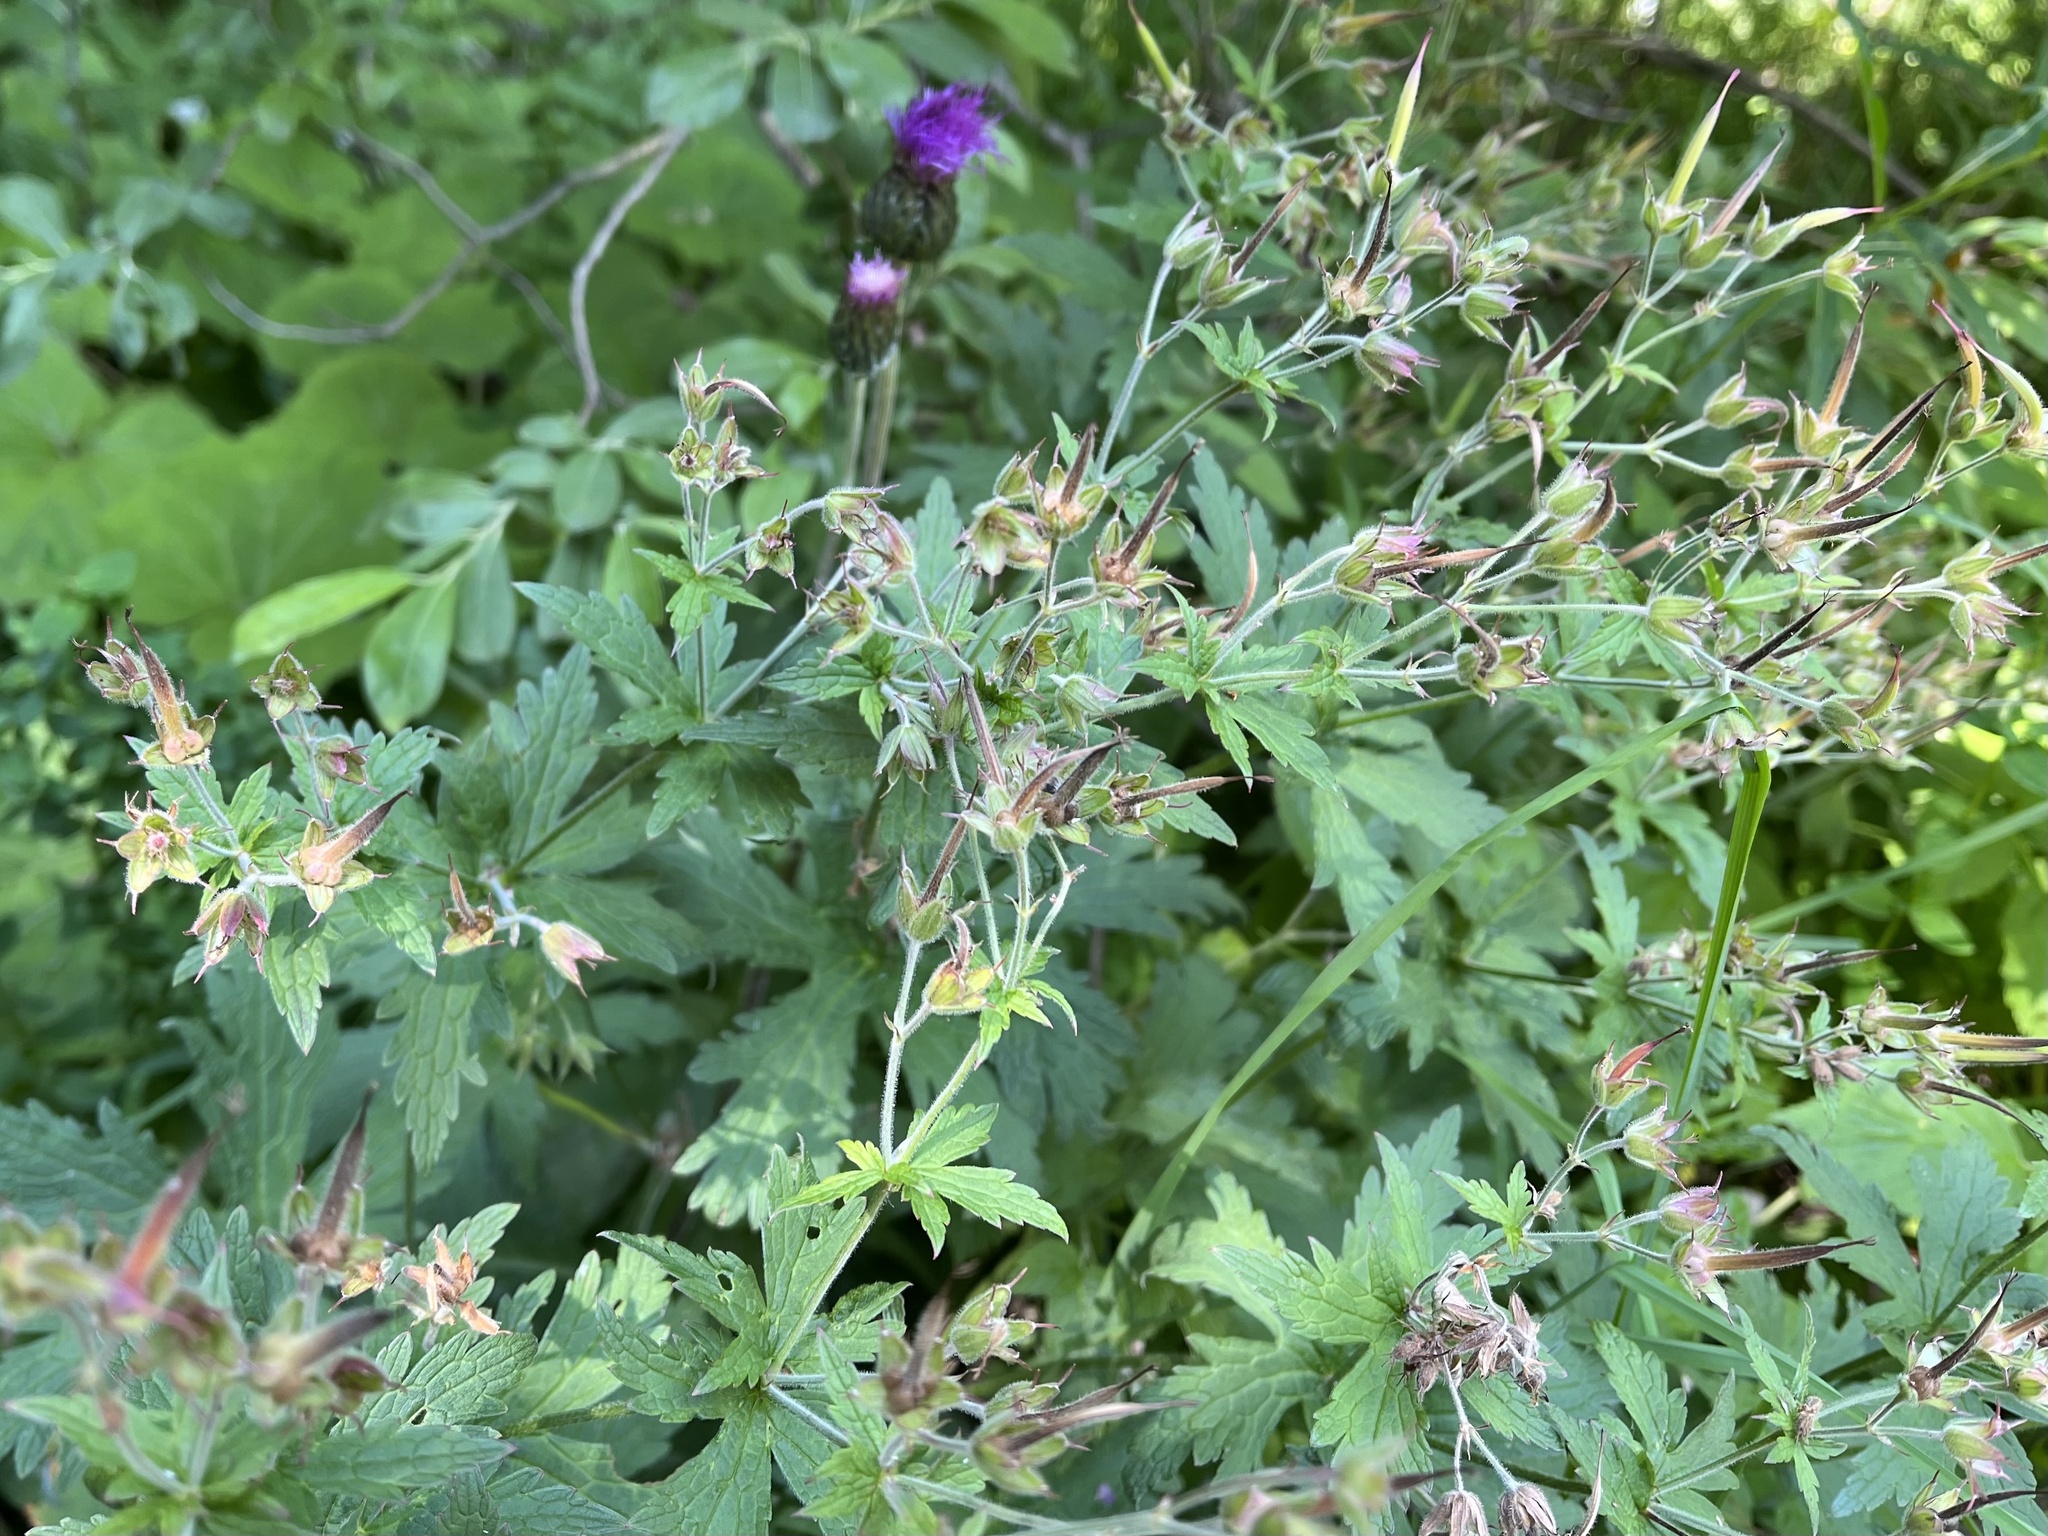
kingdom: Plantae
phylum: Tracheophyta
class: Magnoliopsida
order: Geraniales
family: Geraniaceae
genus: Geranium
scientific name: Geranium sylvaticum
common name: Wood crane's-bill
